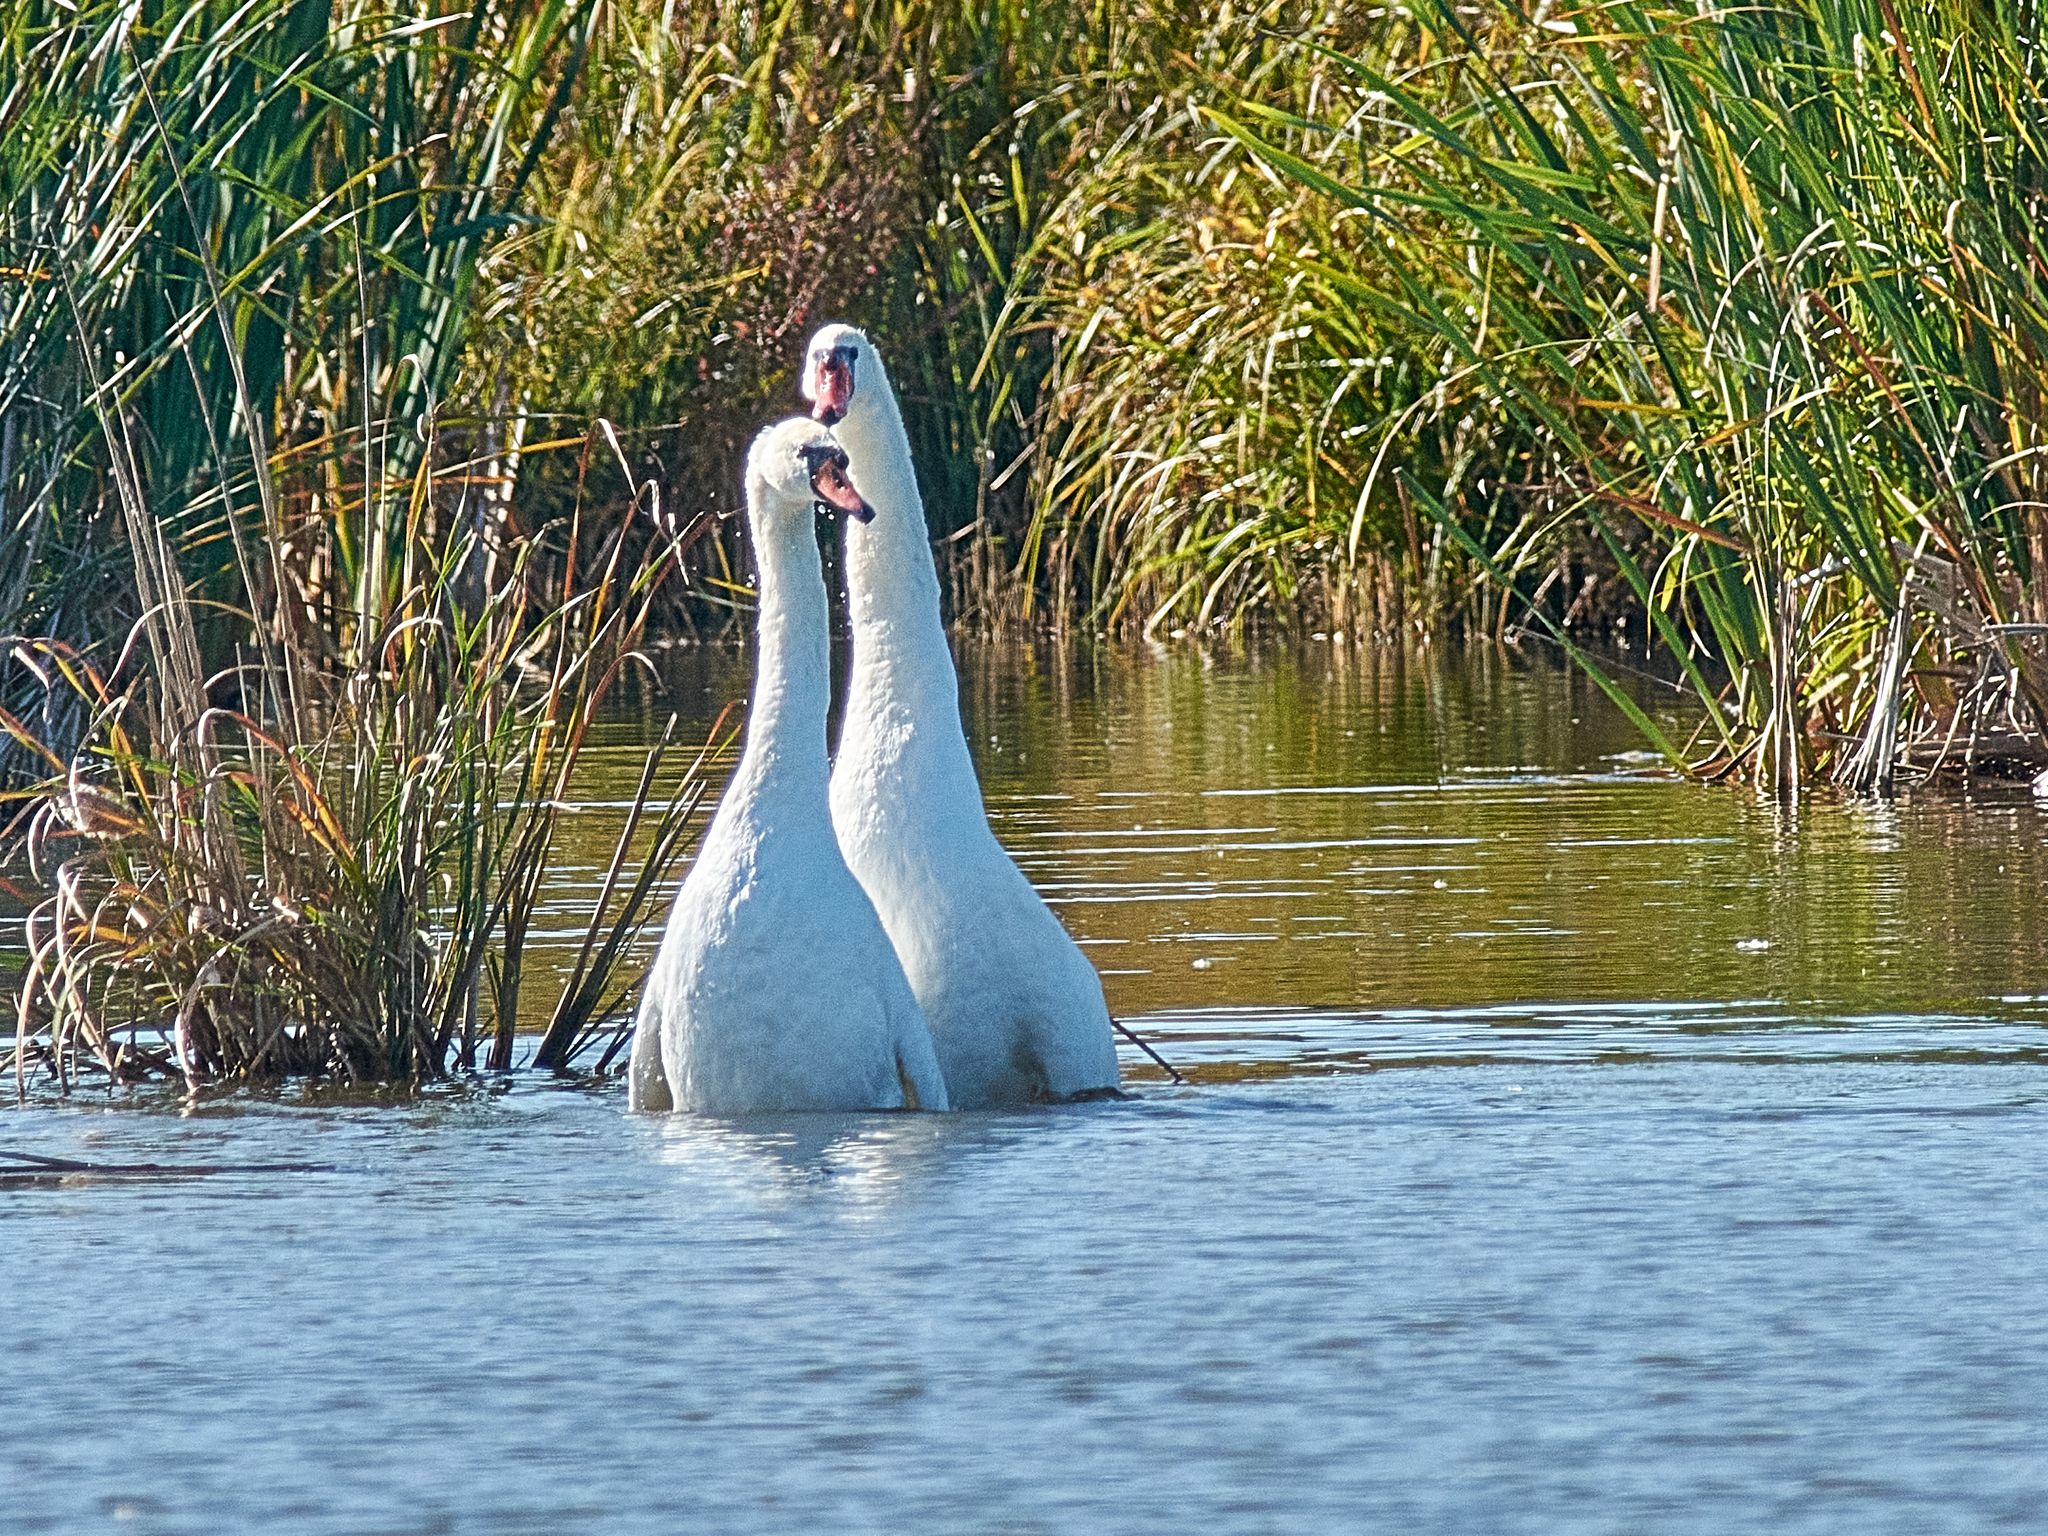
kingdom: Animalia
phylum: Chordata
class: Aves
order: Anseriformes
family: Anatidae
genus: Cygnus
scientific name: Cygnus olor
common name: Mute swan
